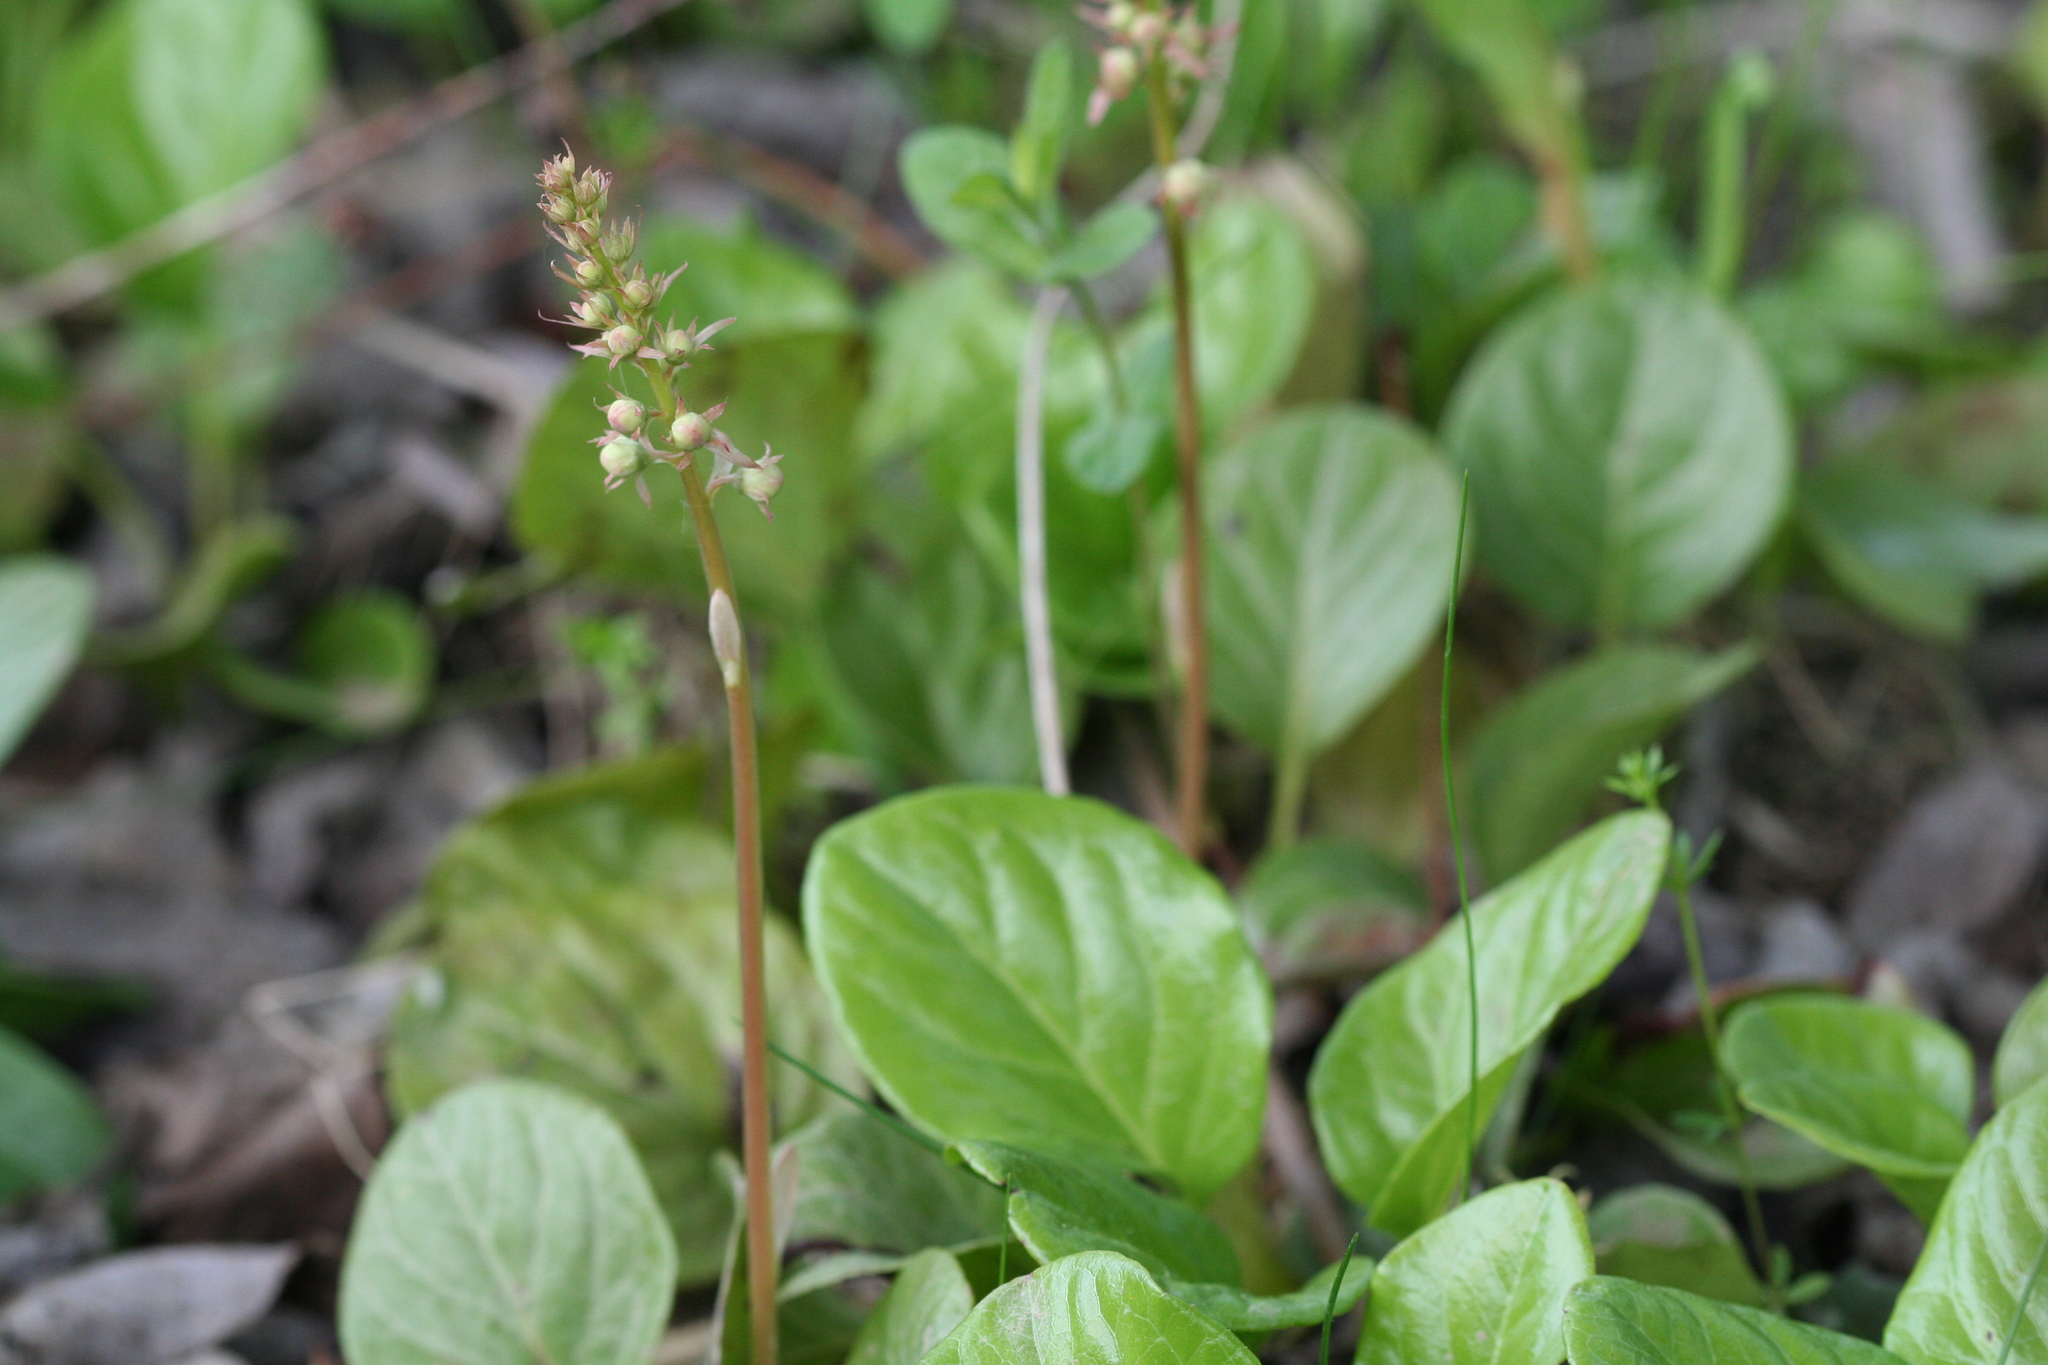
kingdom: Plantae
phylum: Tracheophyta
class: Magnoliopsida
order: Ericales
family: Ericaceae
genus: Pyrola
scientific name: Pyrola rotundifolia
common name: Round-leaved wintergreen
